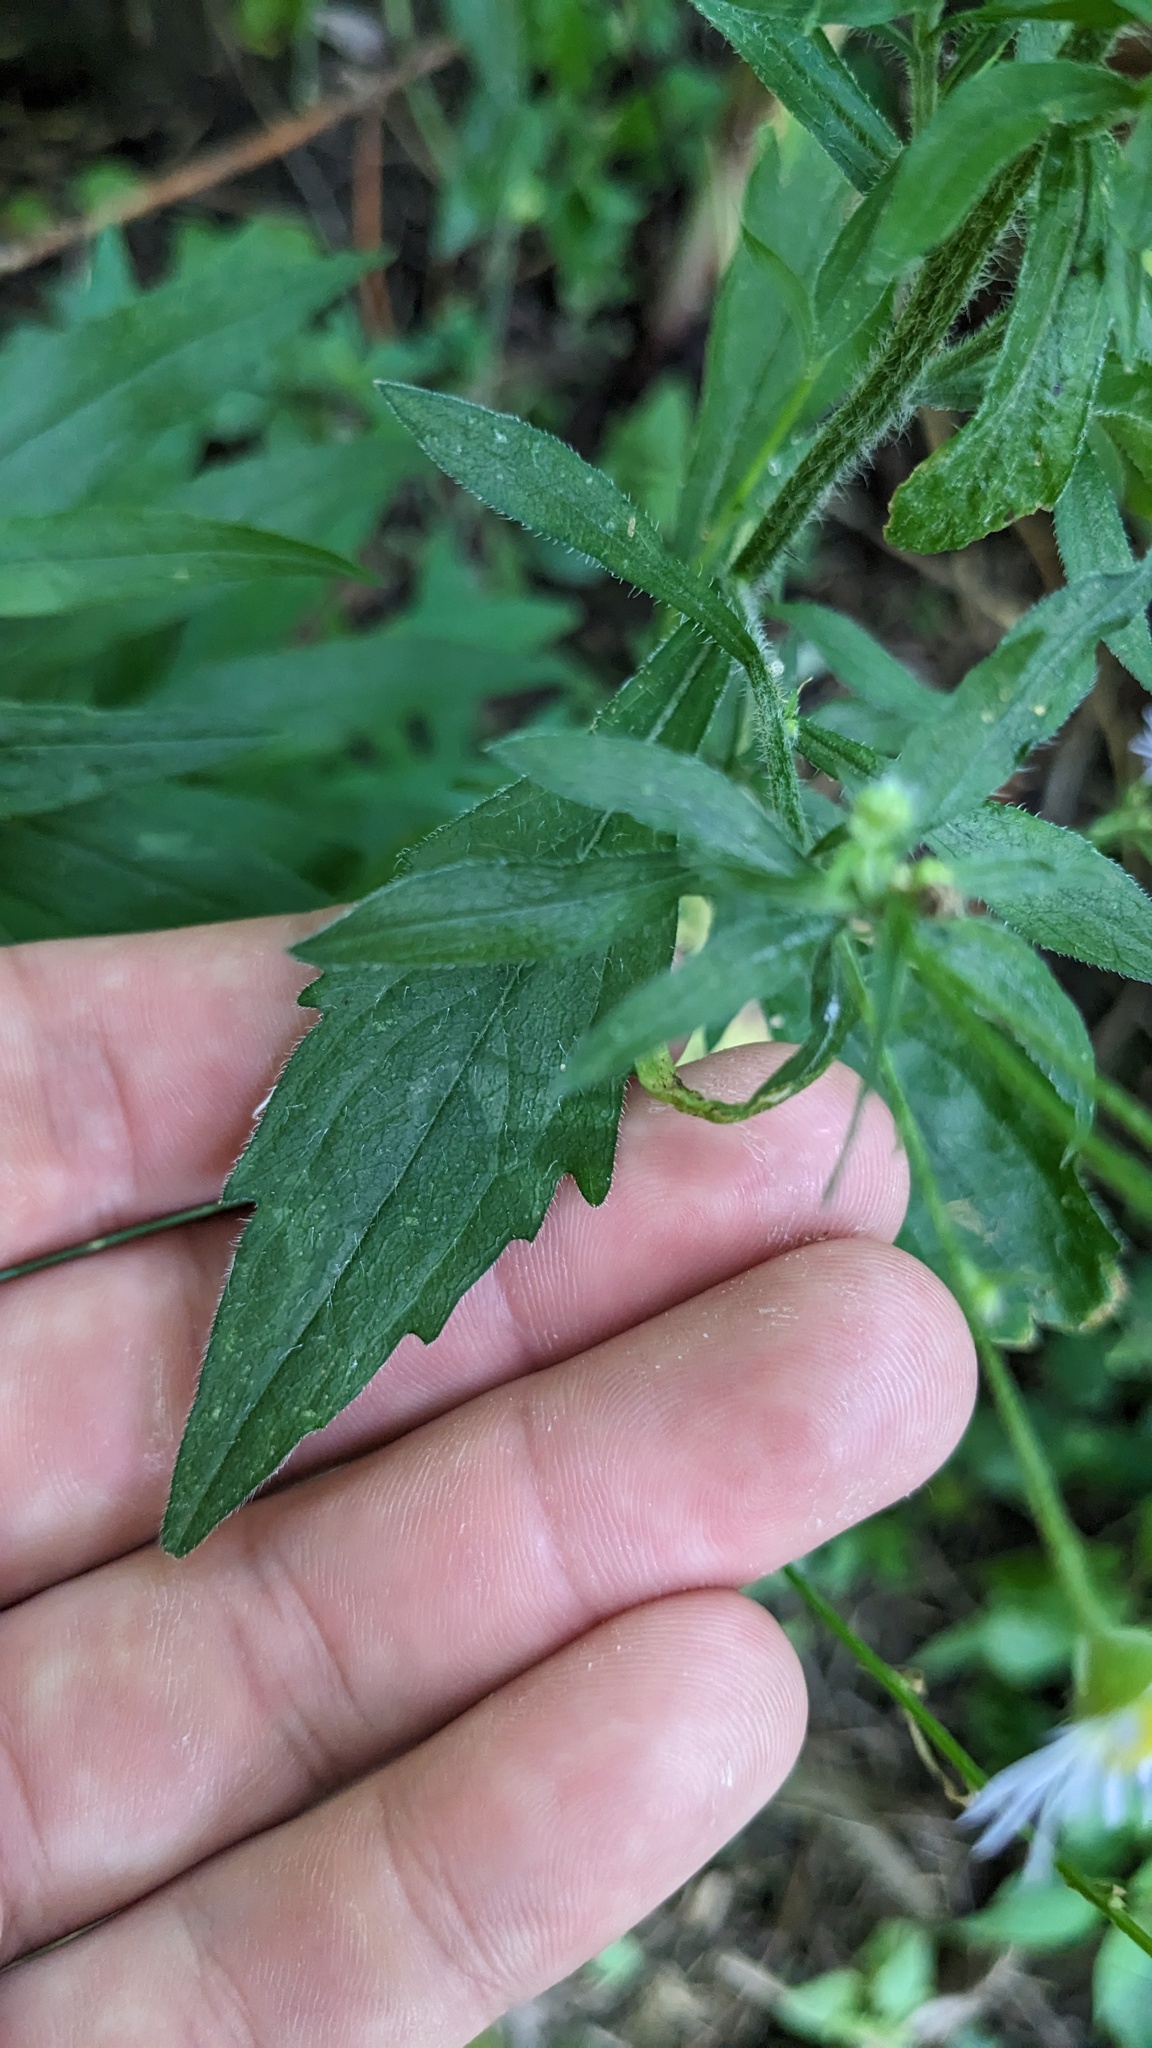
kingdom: Plantae
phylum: Tracheophyta
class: Magnoliopsida
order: Asterales
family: Asteraceae
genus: Erigeron
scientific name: Erigeron annuus
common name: Tall fleabane
